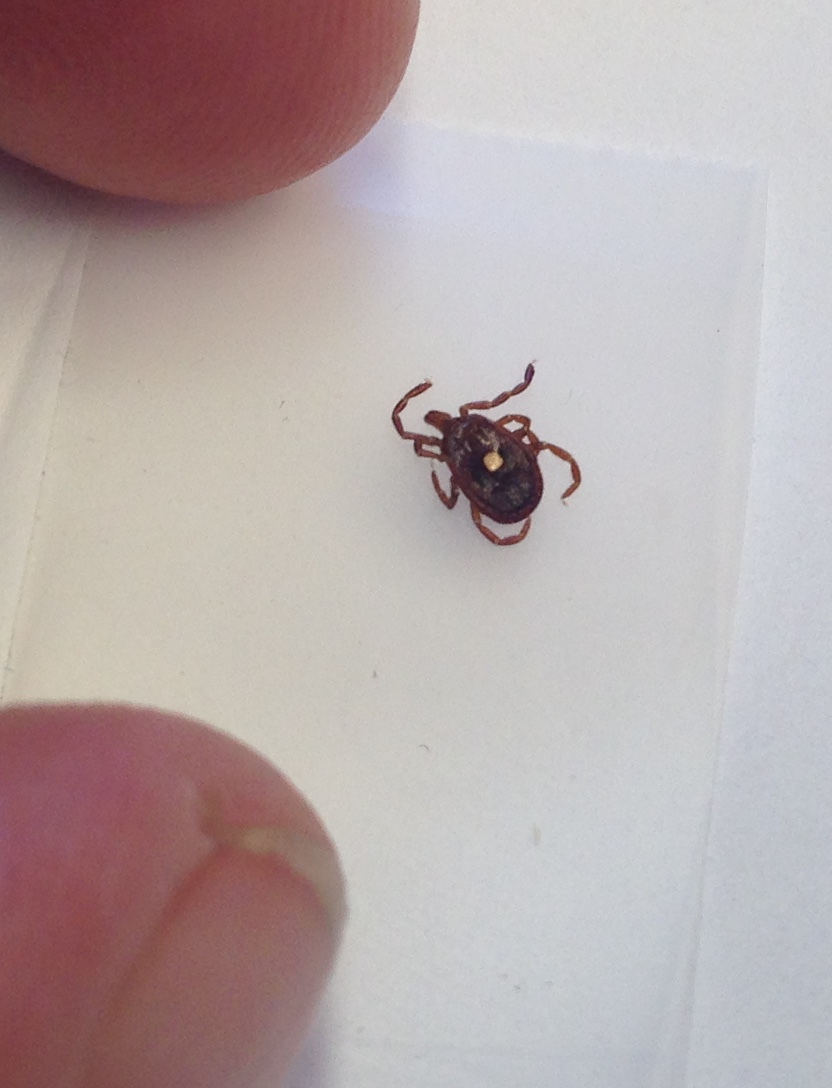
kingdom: Animalia
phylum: Arthropoda
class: Arachnida
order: Ixodida
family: Ixodidae
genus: Amblyomma
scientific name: Amblyomma americanum
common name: Lone star tick
